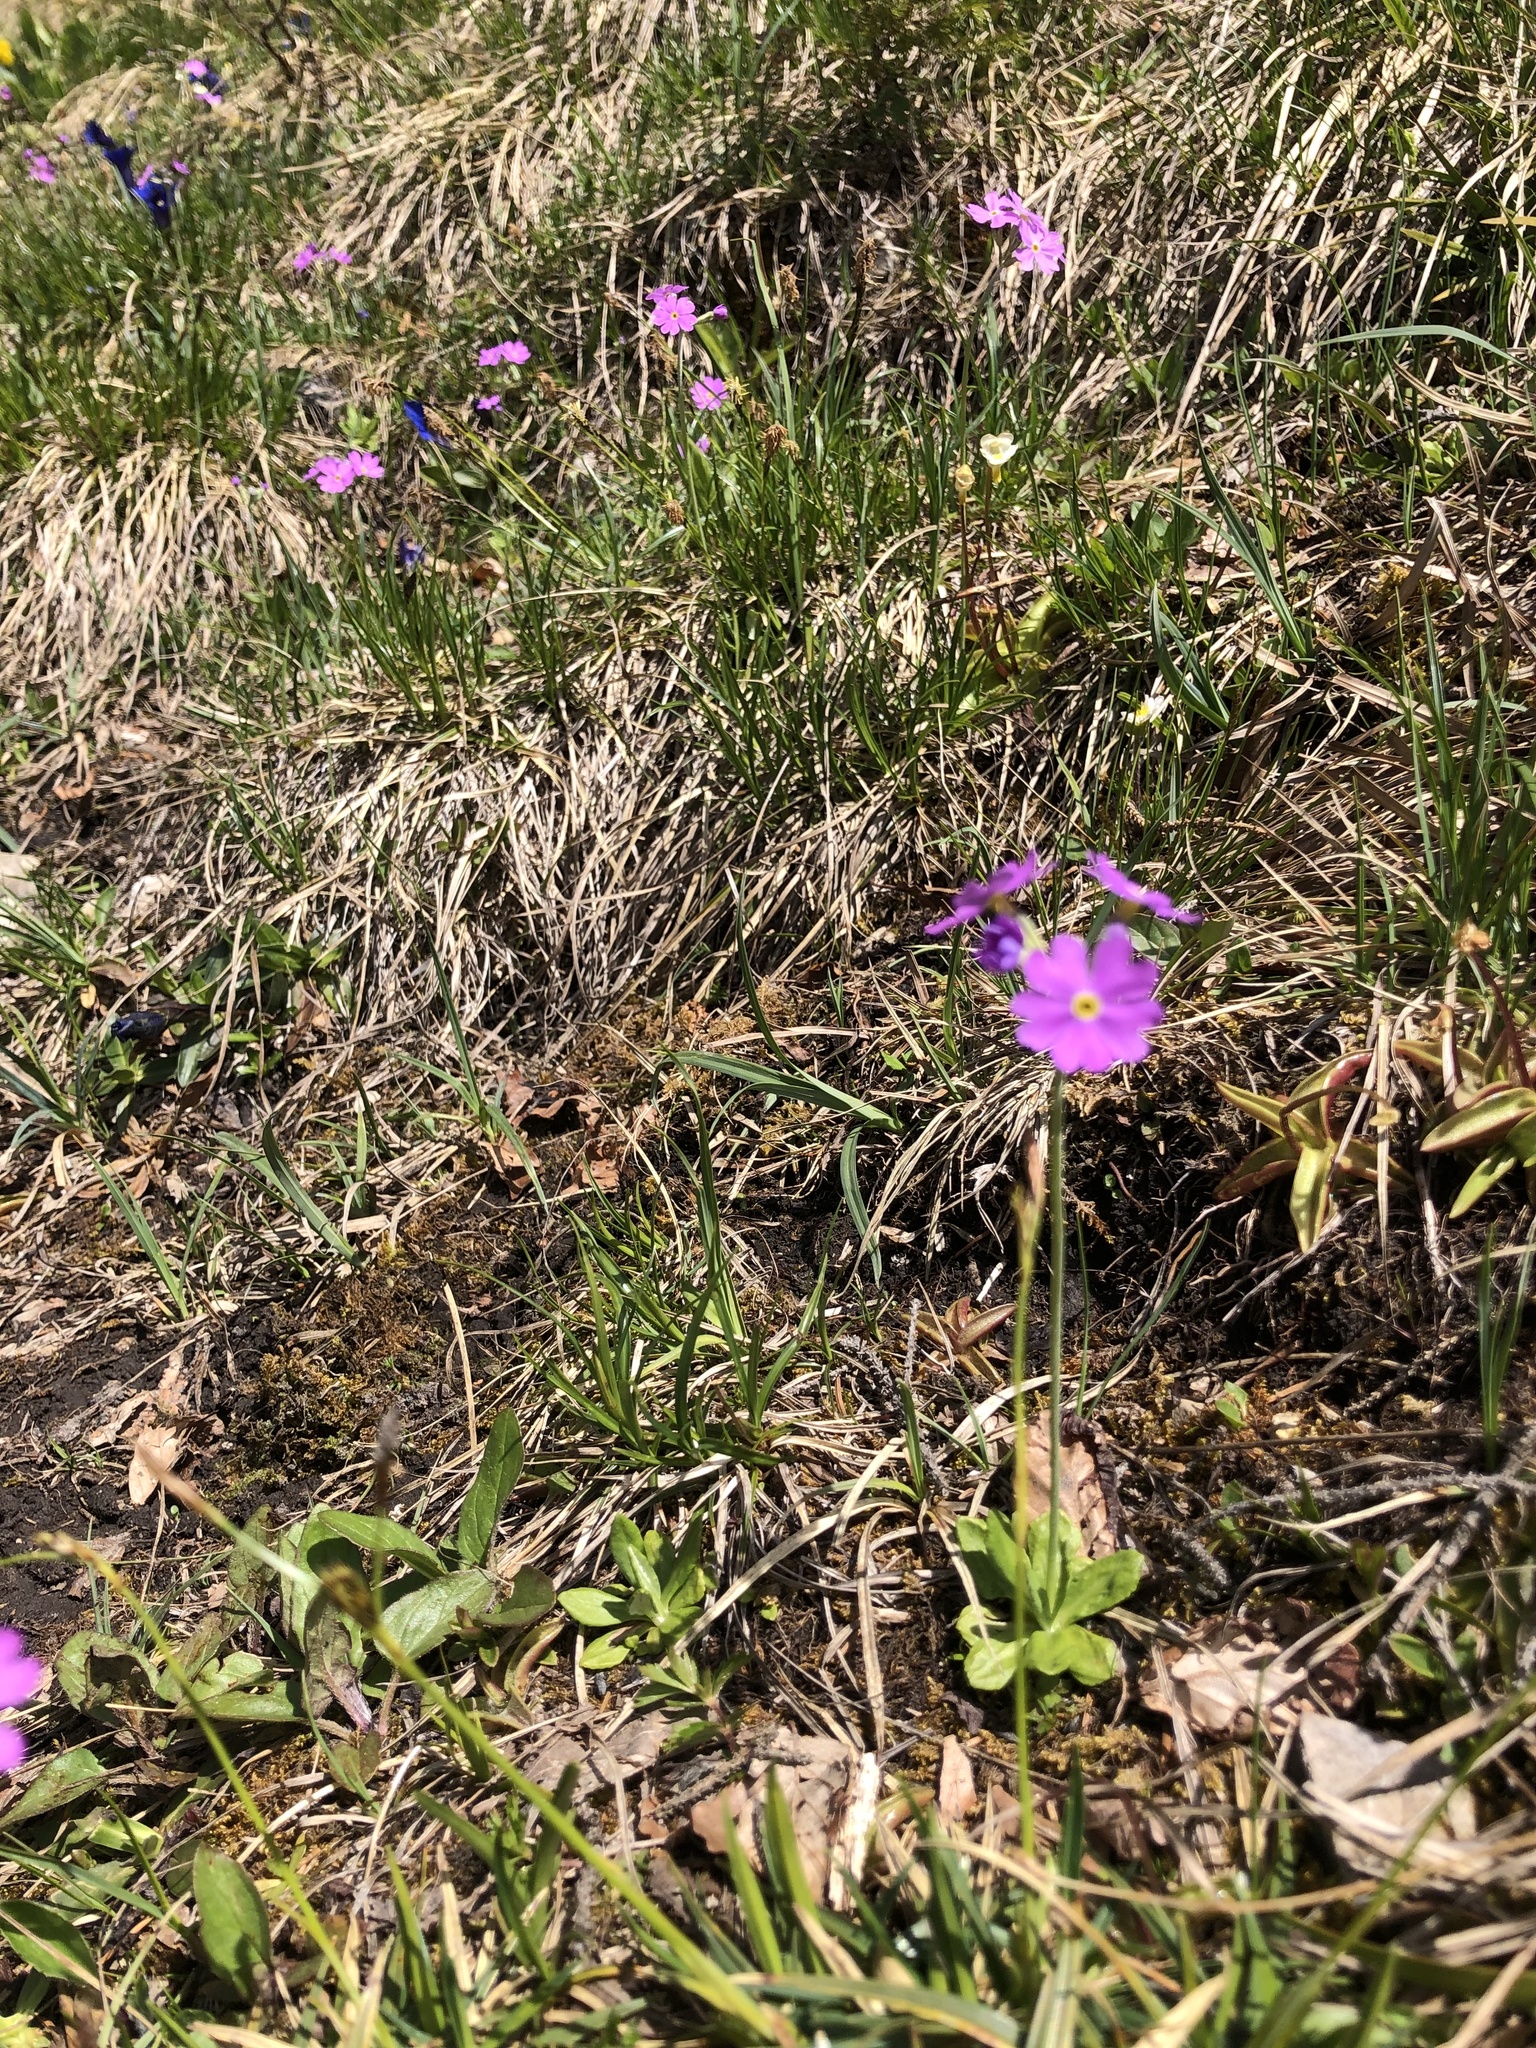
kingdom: Plantae
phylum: Tracheophyta
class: Magnoliopsida
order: Ericales
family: Primulaceae
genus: Primula
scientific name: Primula farinosa
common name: Bird's-eye primrose
